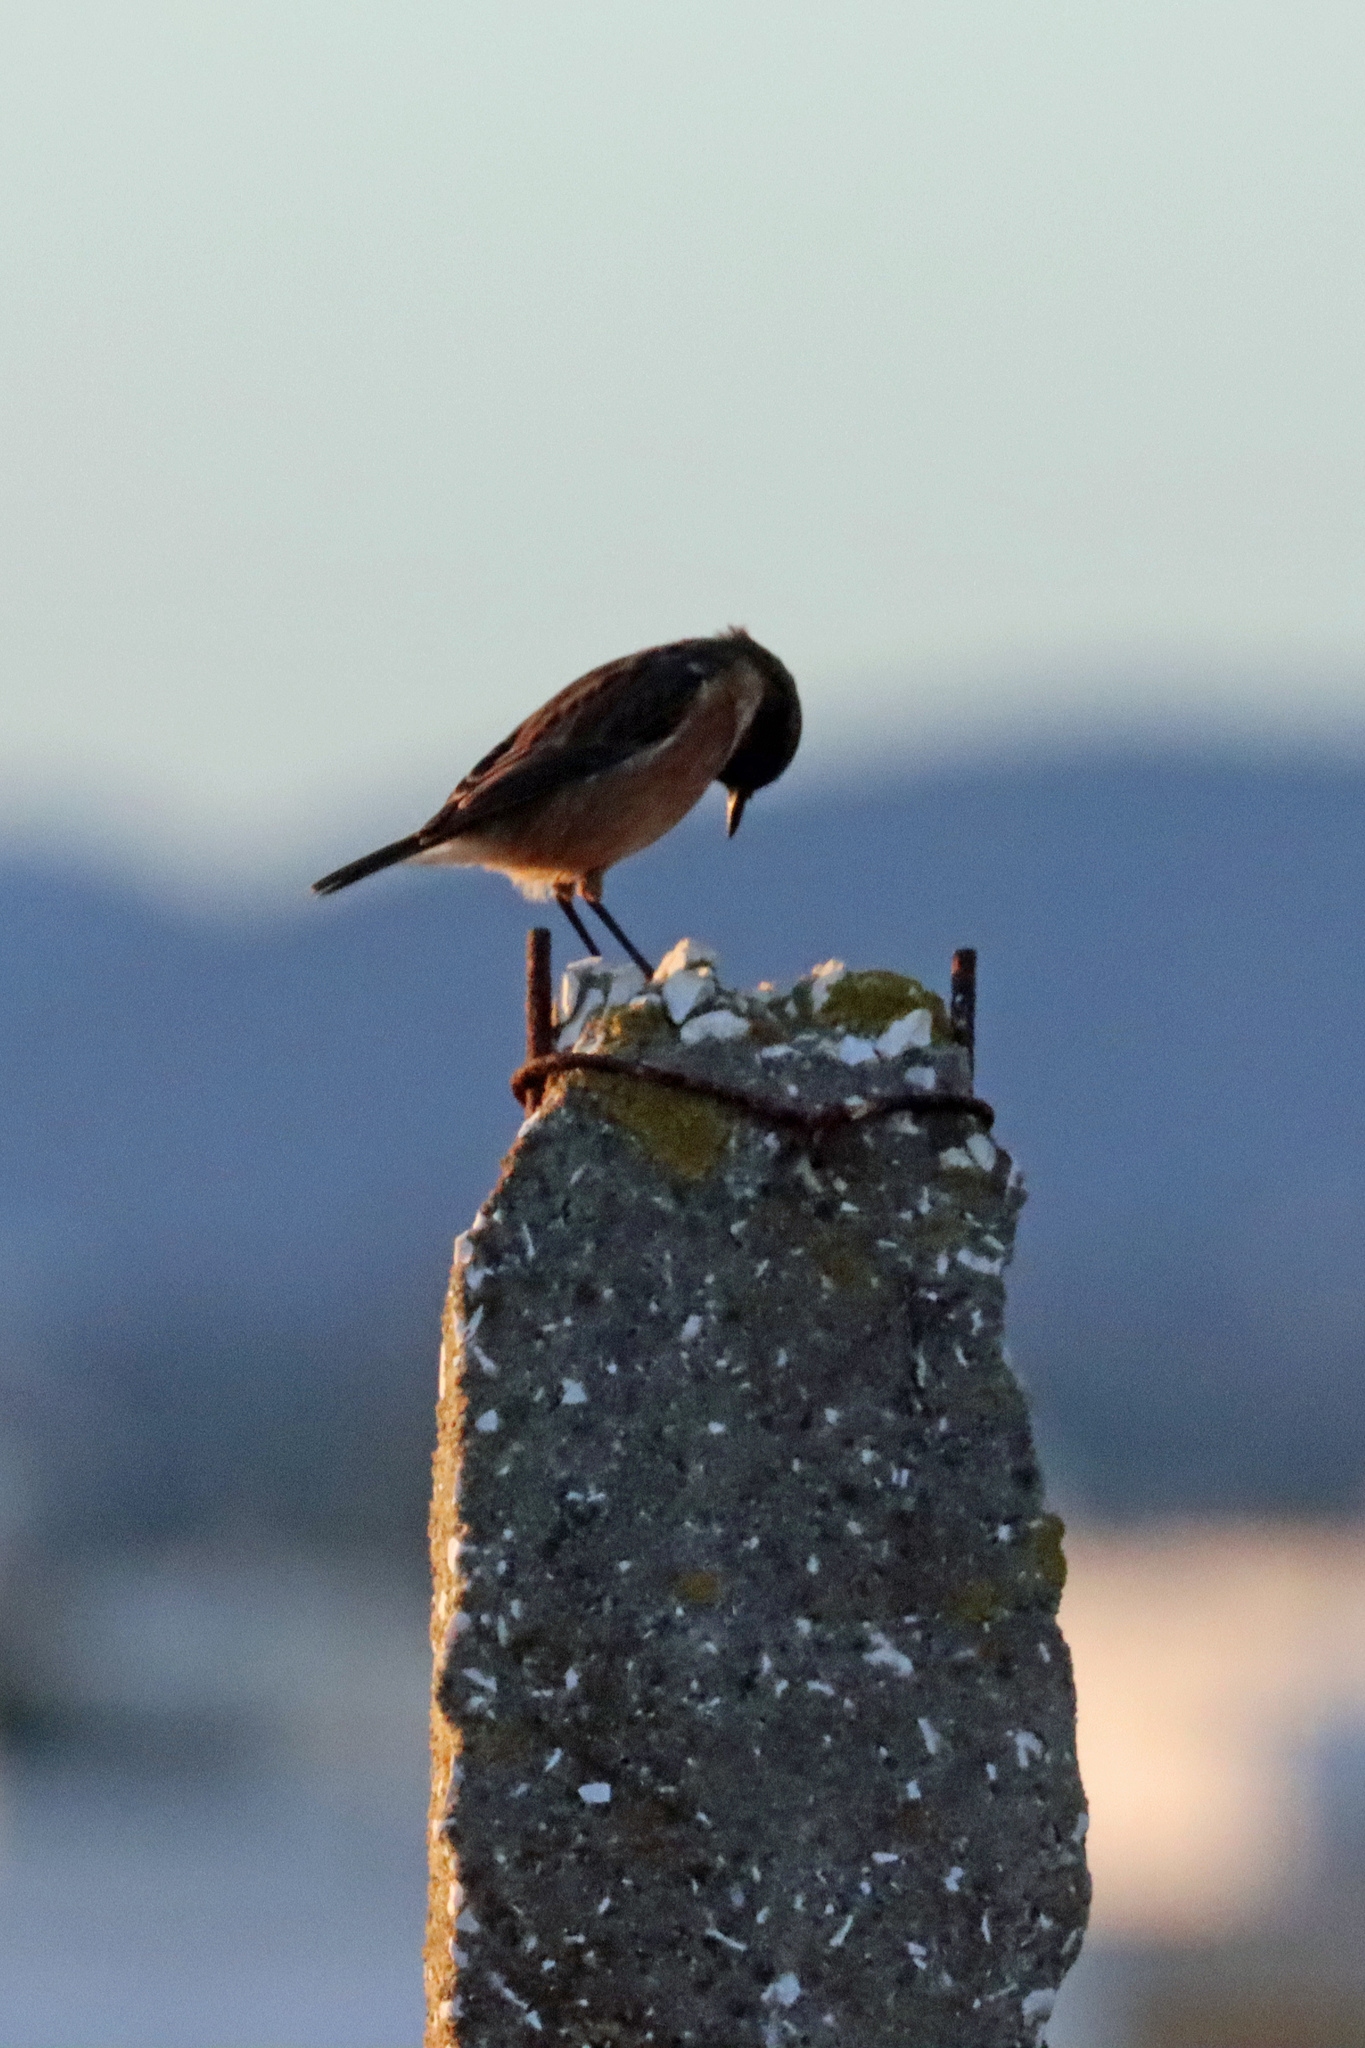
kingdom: Animalia
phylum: Chordata
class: Aves
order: Passeriformes
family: Muscicapidae
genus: Saxicola
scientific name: Saxicola rubicola
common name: European stonechat
